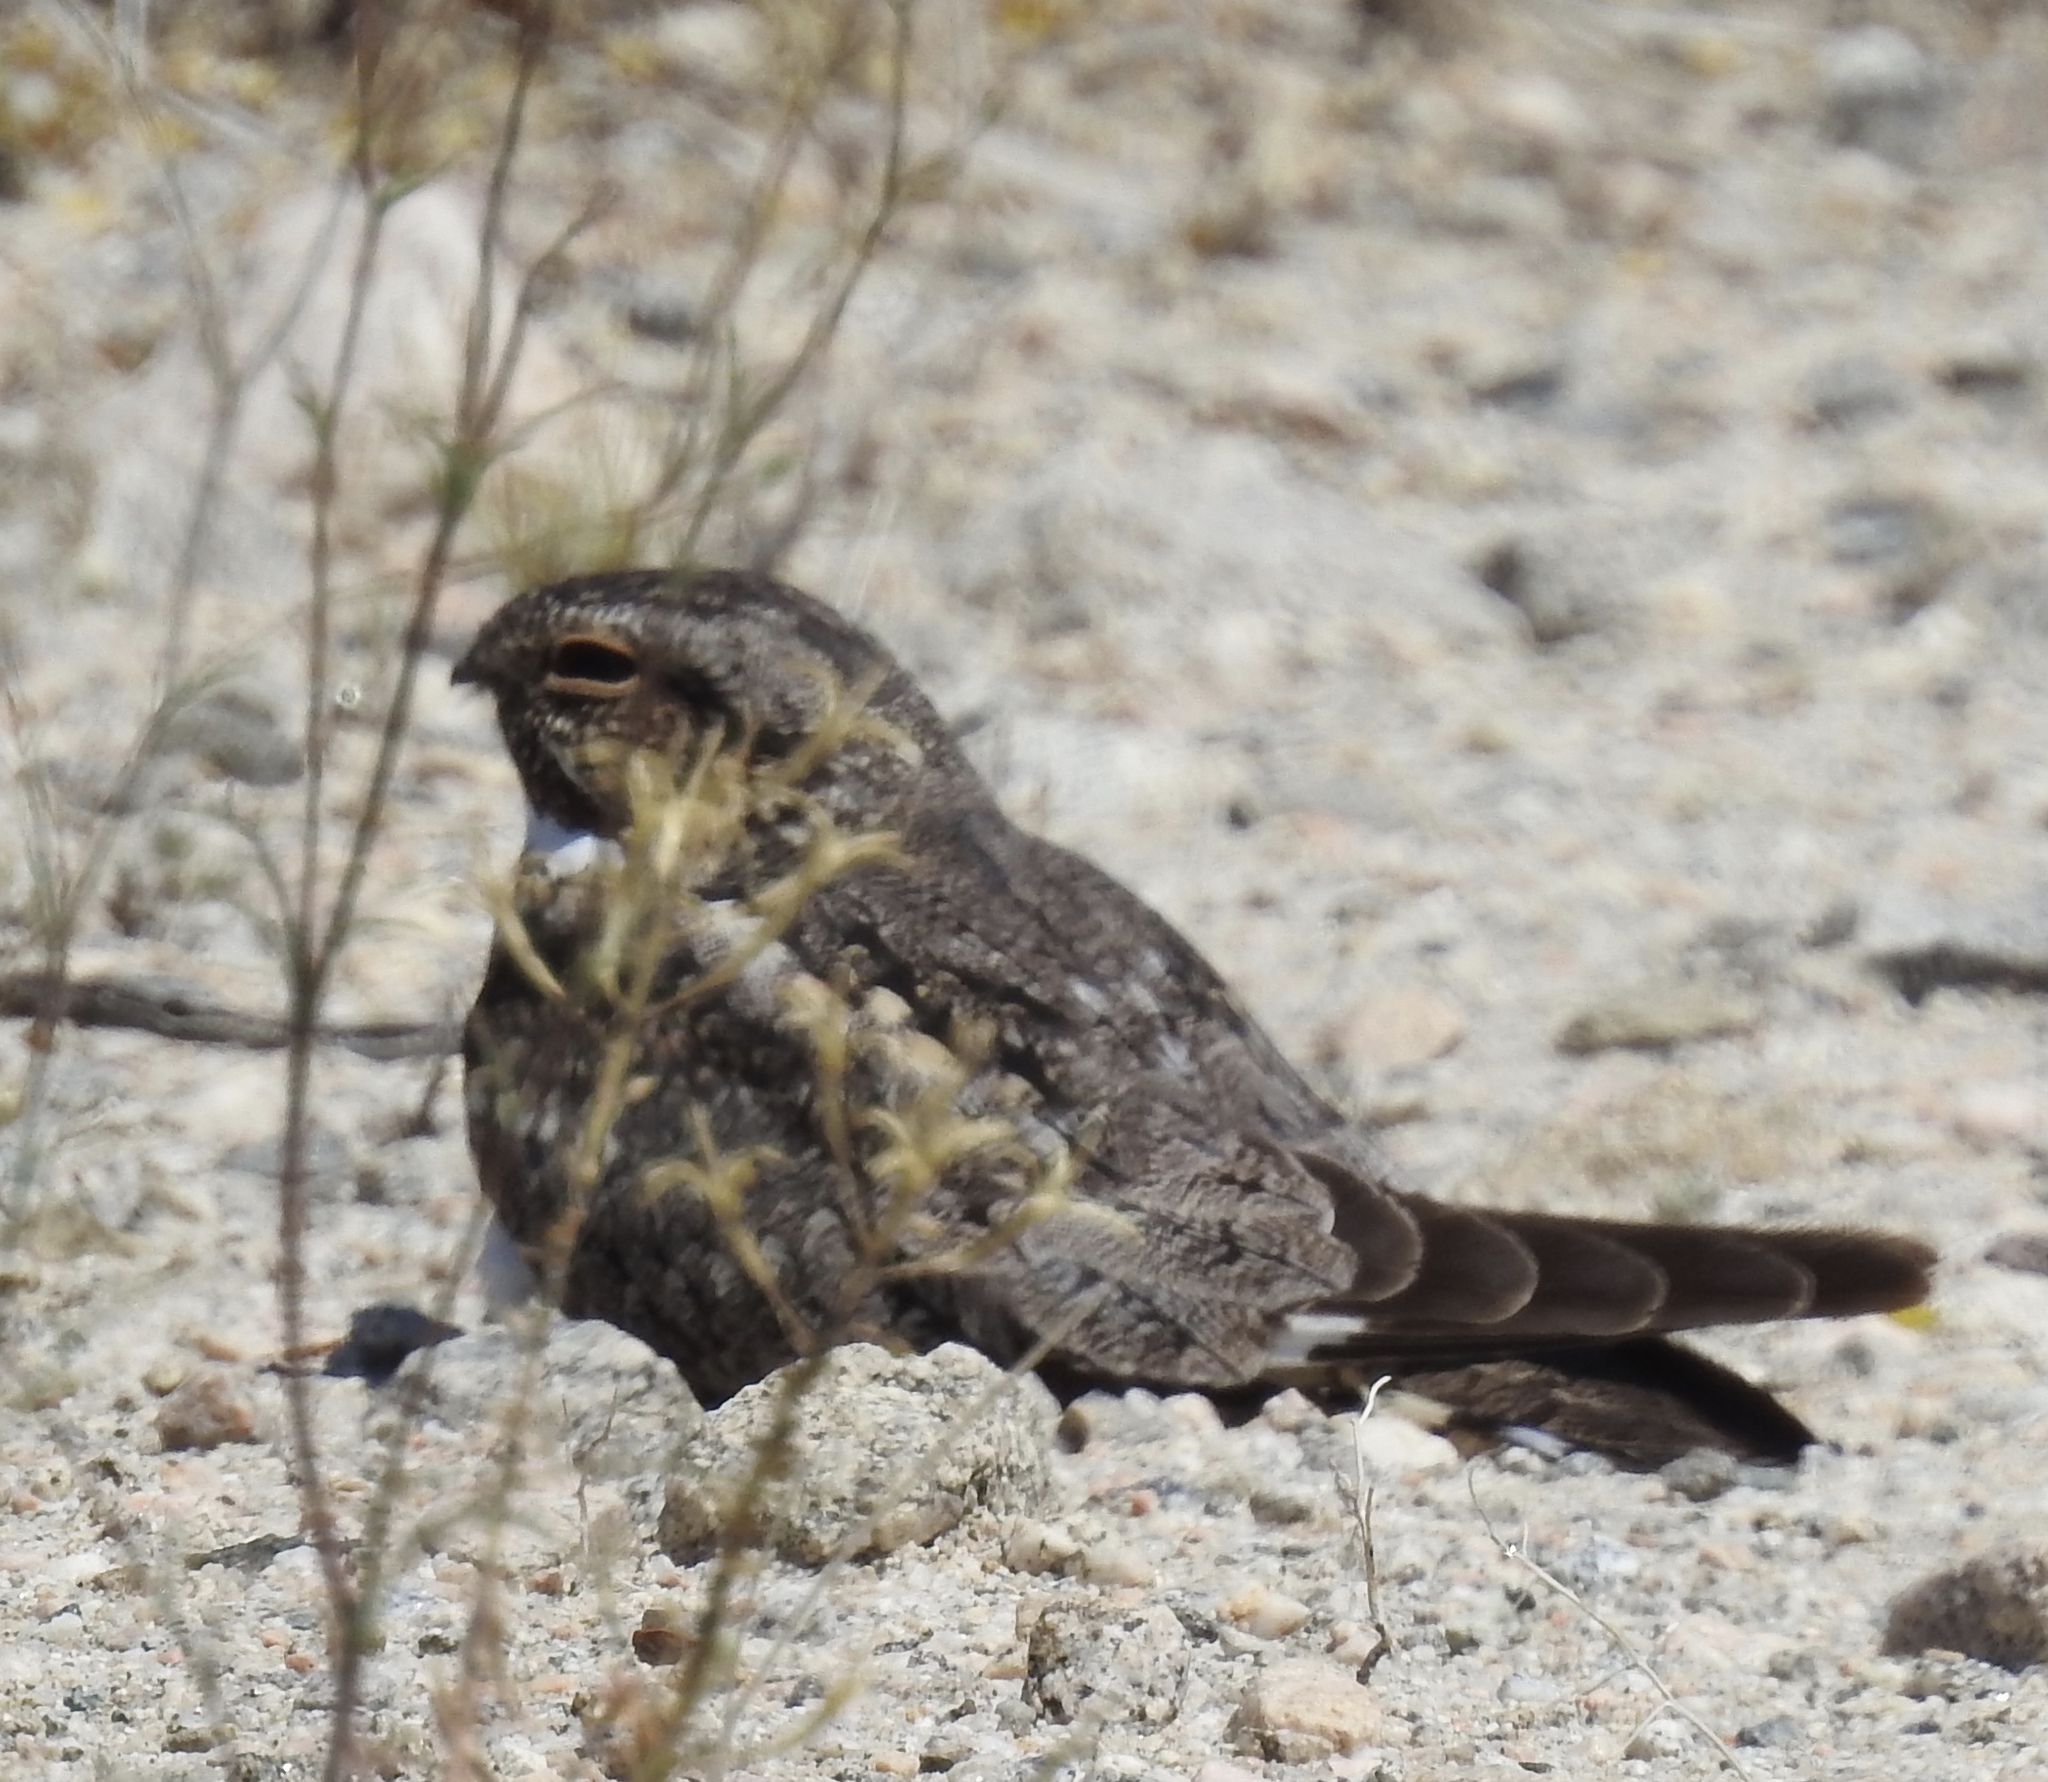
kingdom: Animalia
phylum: Chordata
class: Aves
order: Caprimulgiformes
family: Caprimulgidae
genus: Chordeiles
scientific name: Chordeiles acutipennis
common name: Lesser nighthawk
